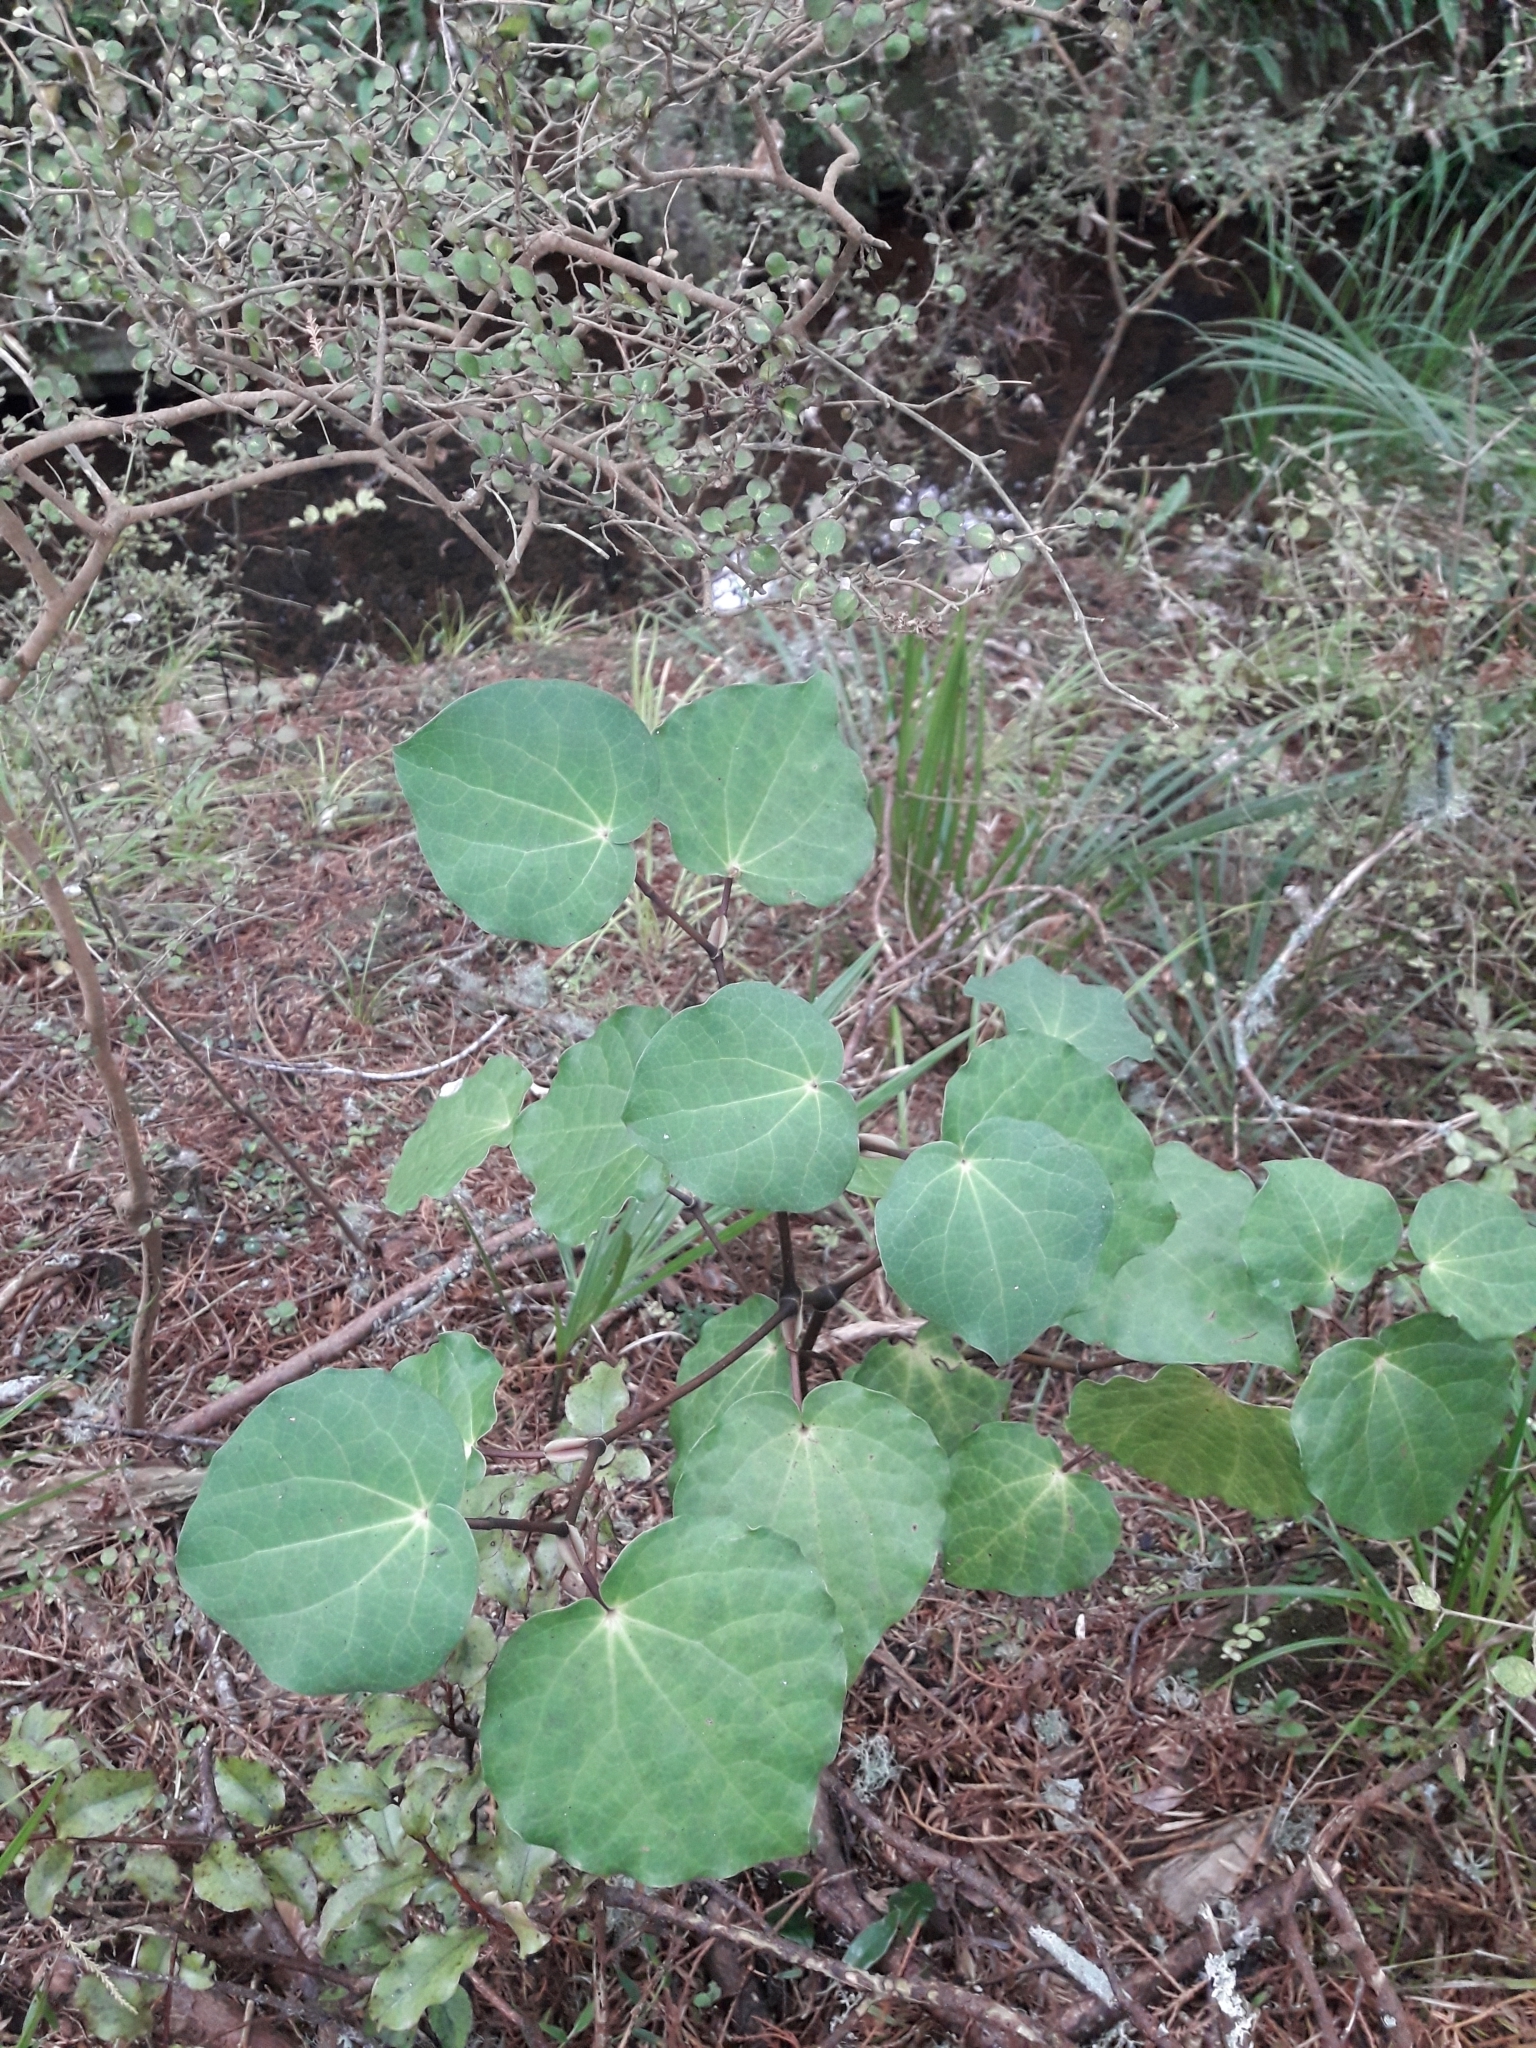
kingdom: Plantae
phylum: Tracheophyta
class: Magnoliopsida
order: Piperales
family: Piperaceae
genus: Macropiper
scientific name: Macropiper excelsum
